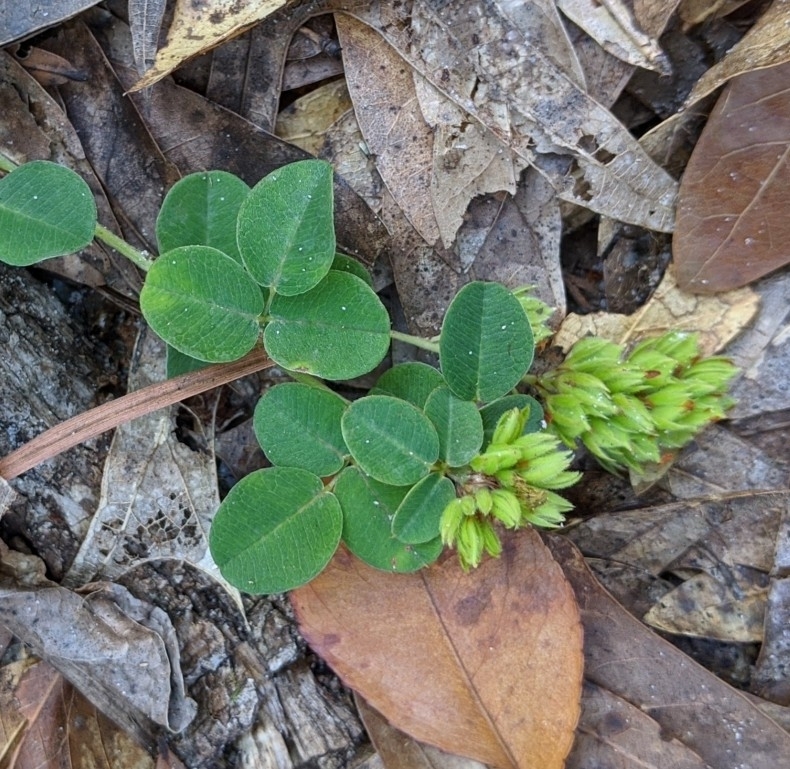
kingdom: Plantae
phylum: Tracheophyta
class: Magnoliopsida
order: Fabales
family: Fabaceae
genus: Lespedeza
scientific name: Lespedeza hirta
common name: Hairy lespedeza
